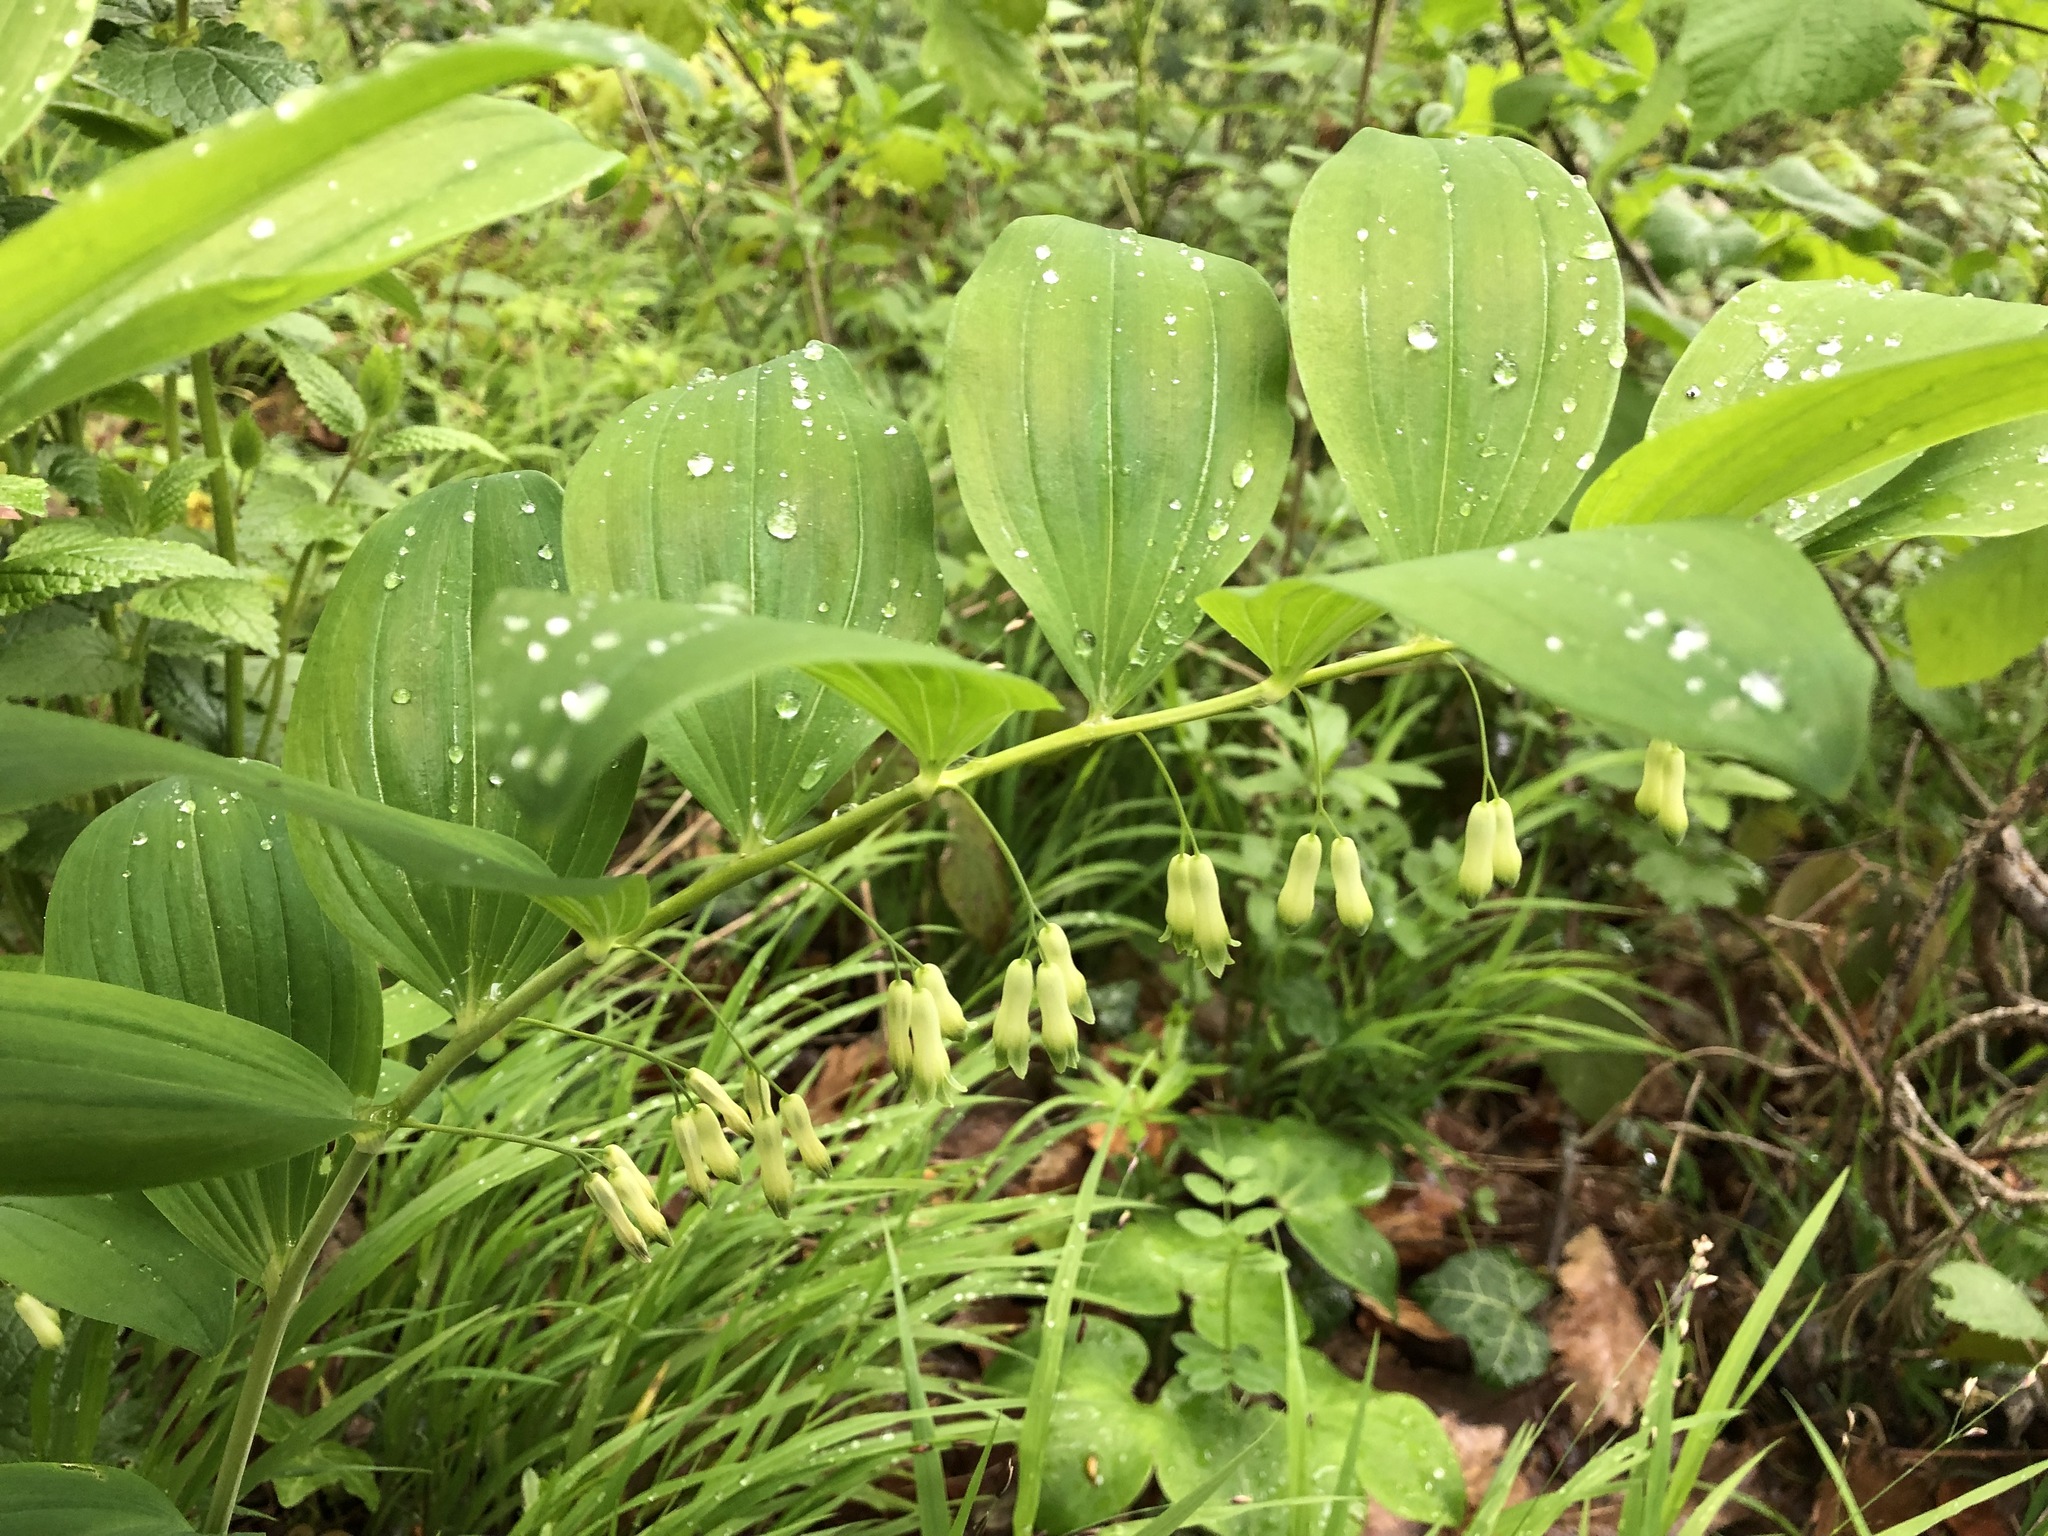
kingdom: Plantae
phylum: Tracheophyta
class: Liliopsida
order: Asparagales
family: Asparagaceae
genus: Polygonatum
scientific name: Polygonatum multiflorum
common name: Solomon's-seal
